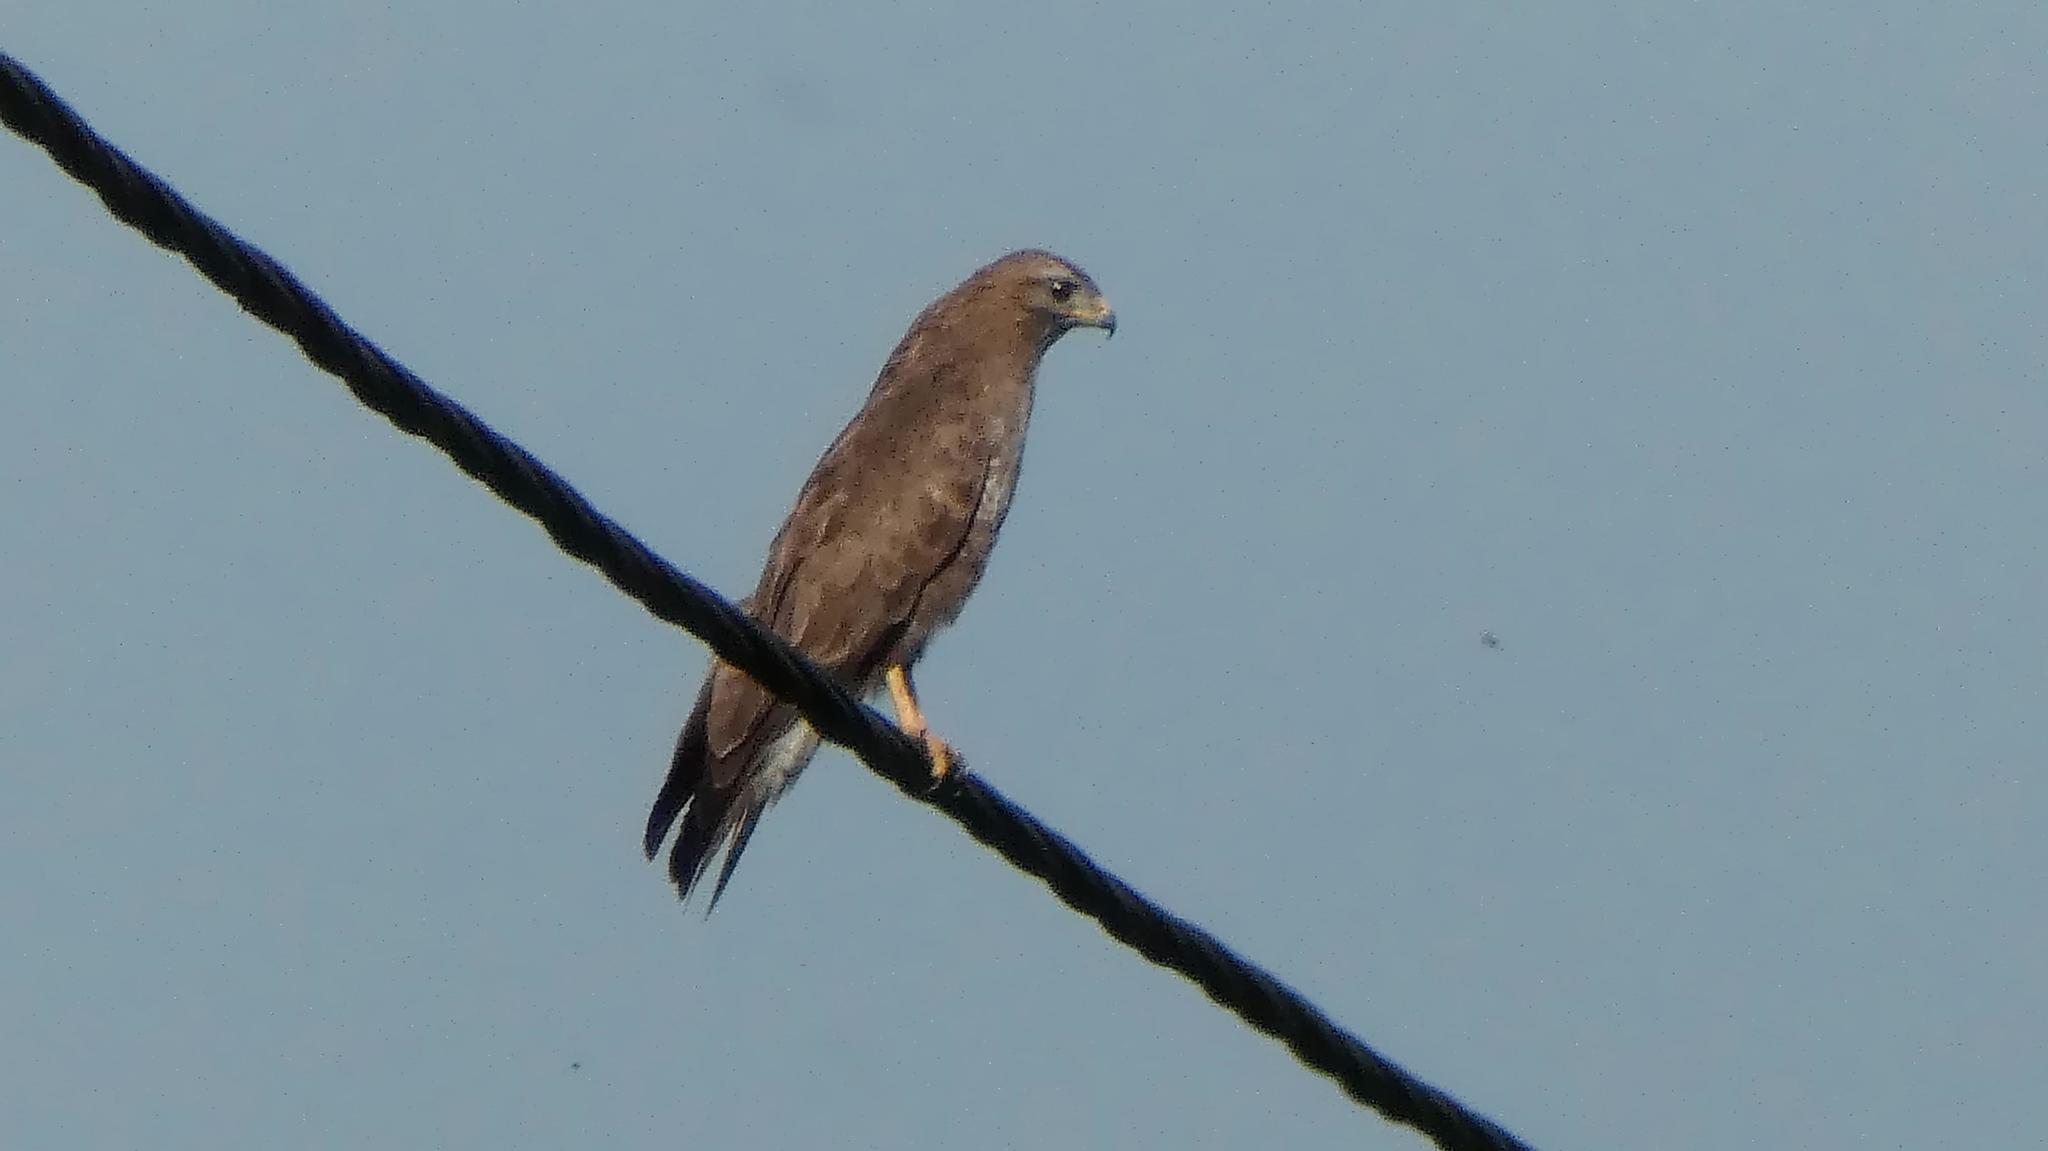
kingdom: Animalia
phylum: Chordata
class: Aves
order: Accipitriformes
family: Accipitridae
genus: Buteo
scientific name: Buteo buteo
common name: Common buzzard
